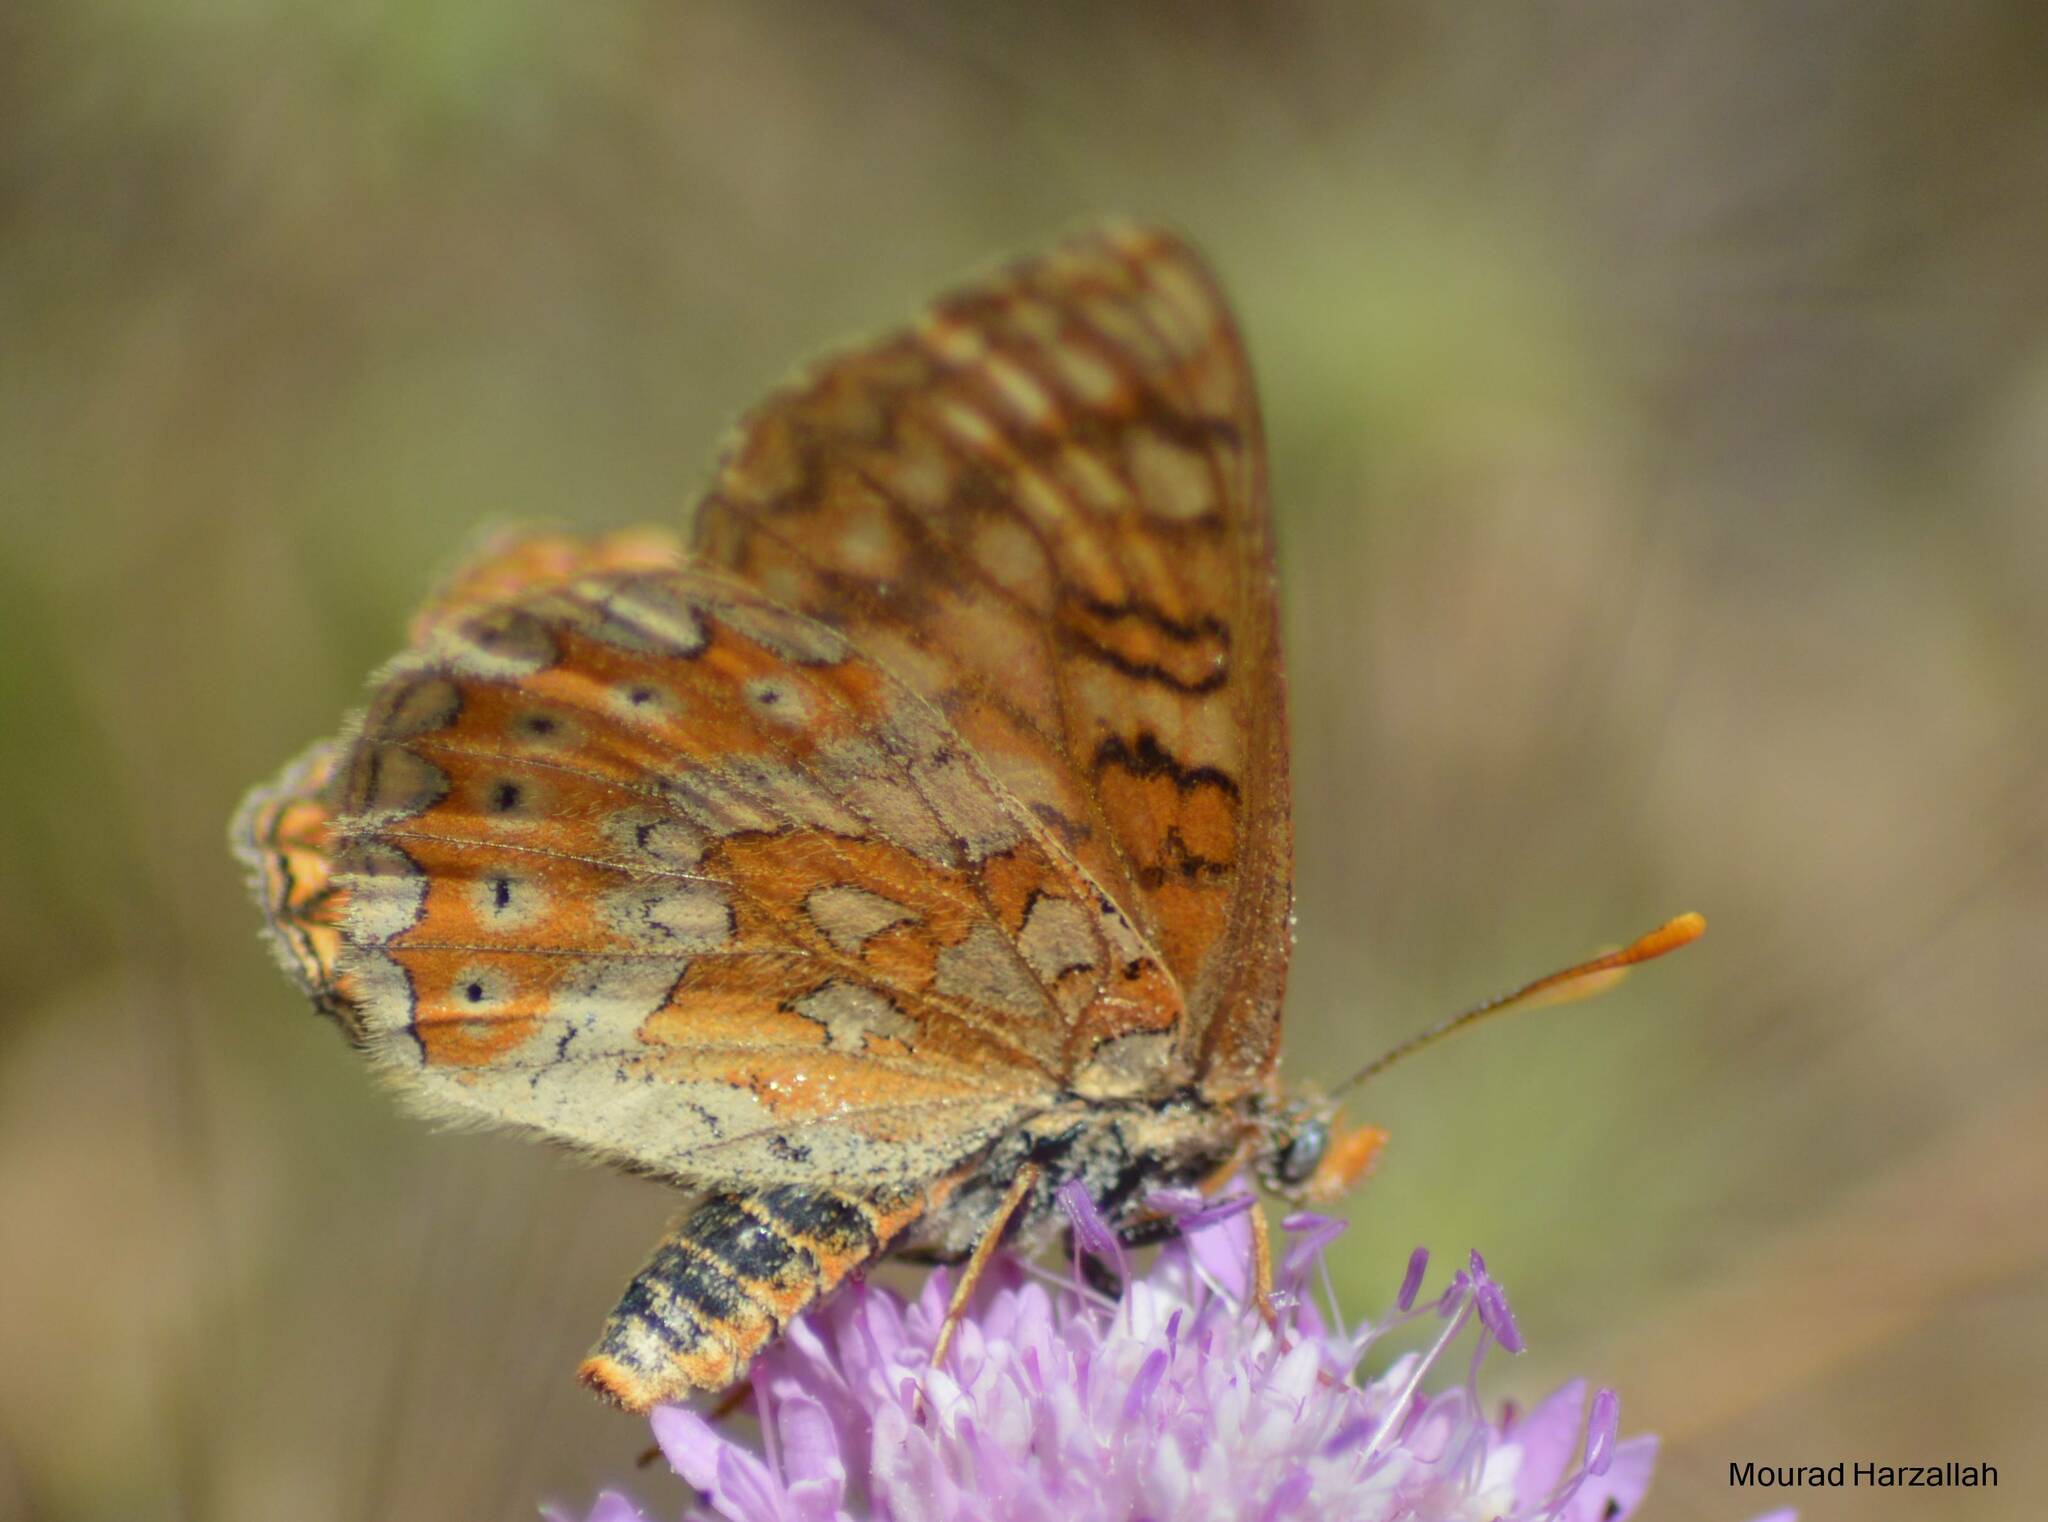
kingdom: Animalia
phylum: Arthropoda
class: Insecta
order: Lepidoptera
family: Nymphalidae
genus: Euphydryas
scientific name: Euphydryas aurinia
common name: Marsh fritillary
